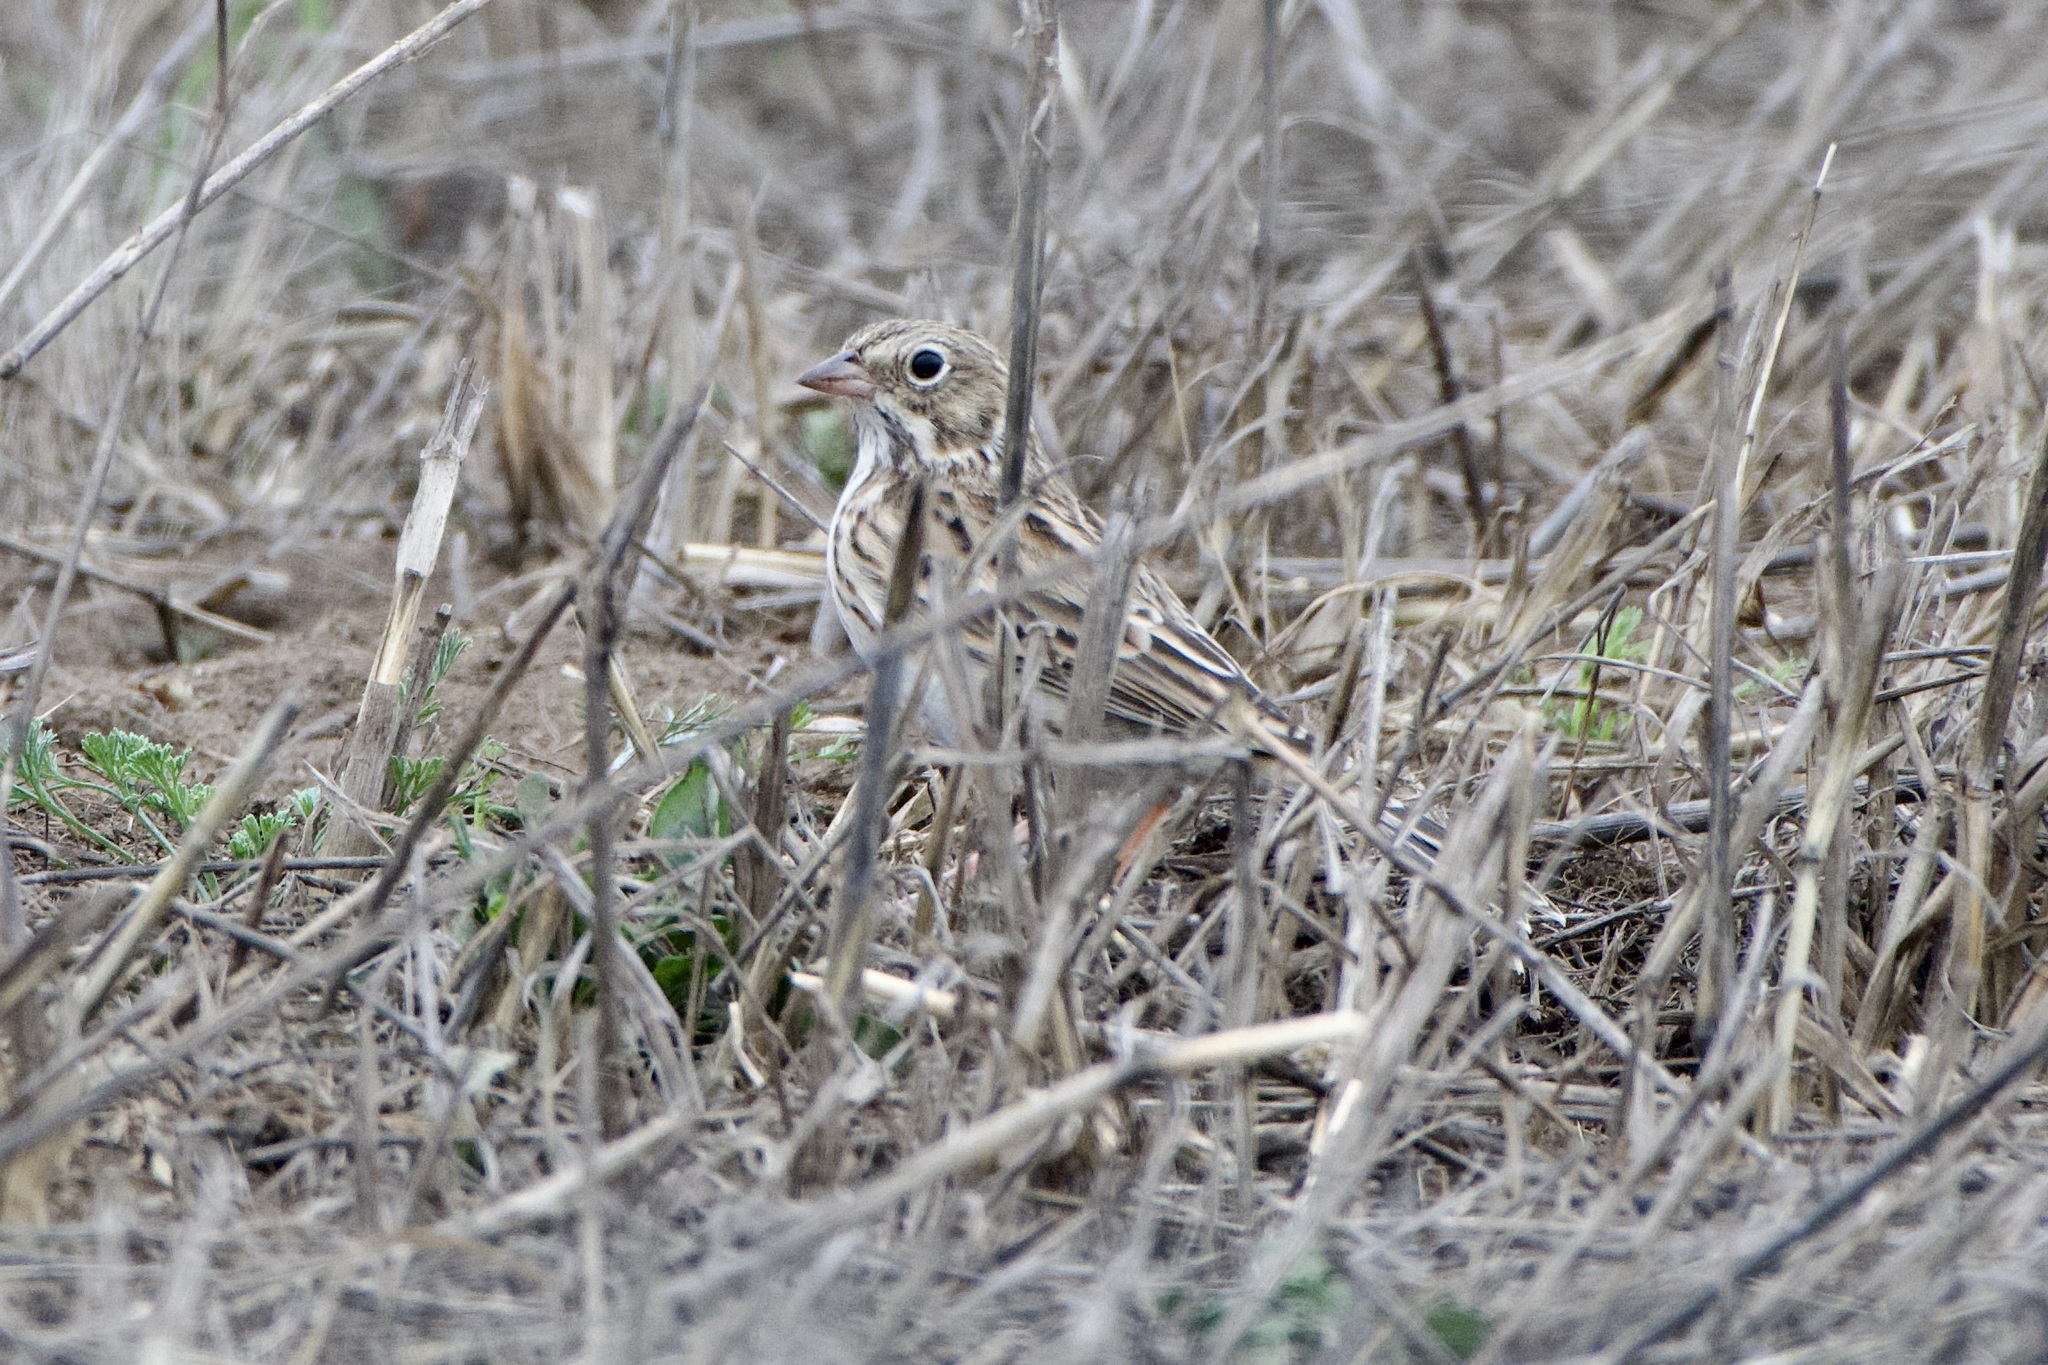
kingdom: Animalia
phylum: Chordata
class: Aves
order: Passeriformes
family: Passerellidae
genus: Pooecetes
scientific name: Pooecetes gramineus
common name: Vesper sparrow
